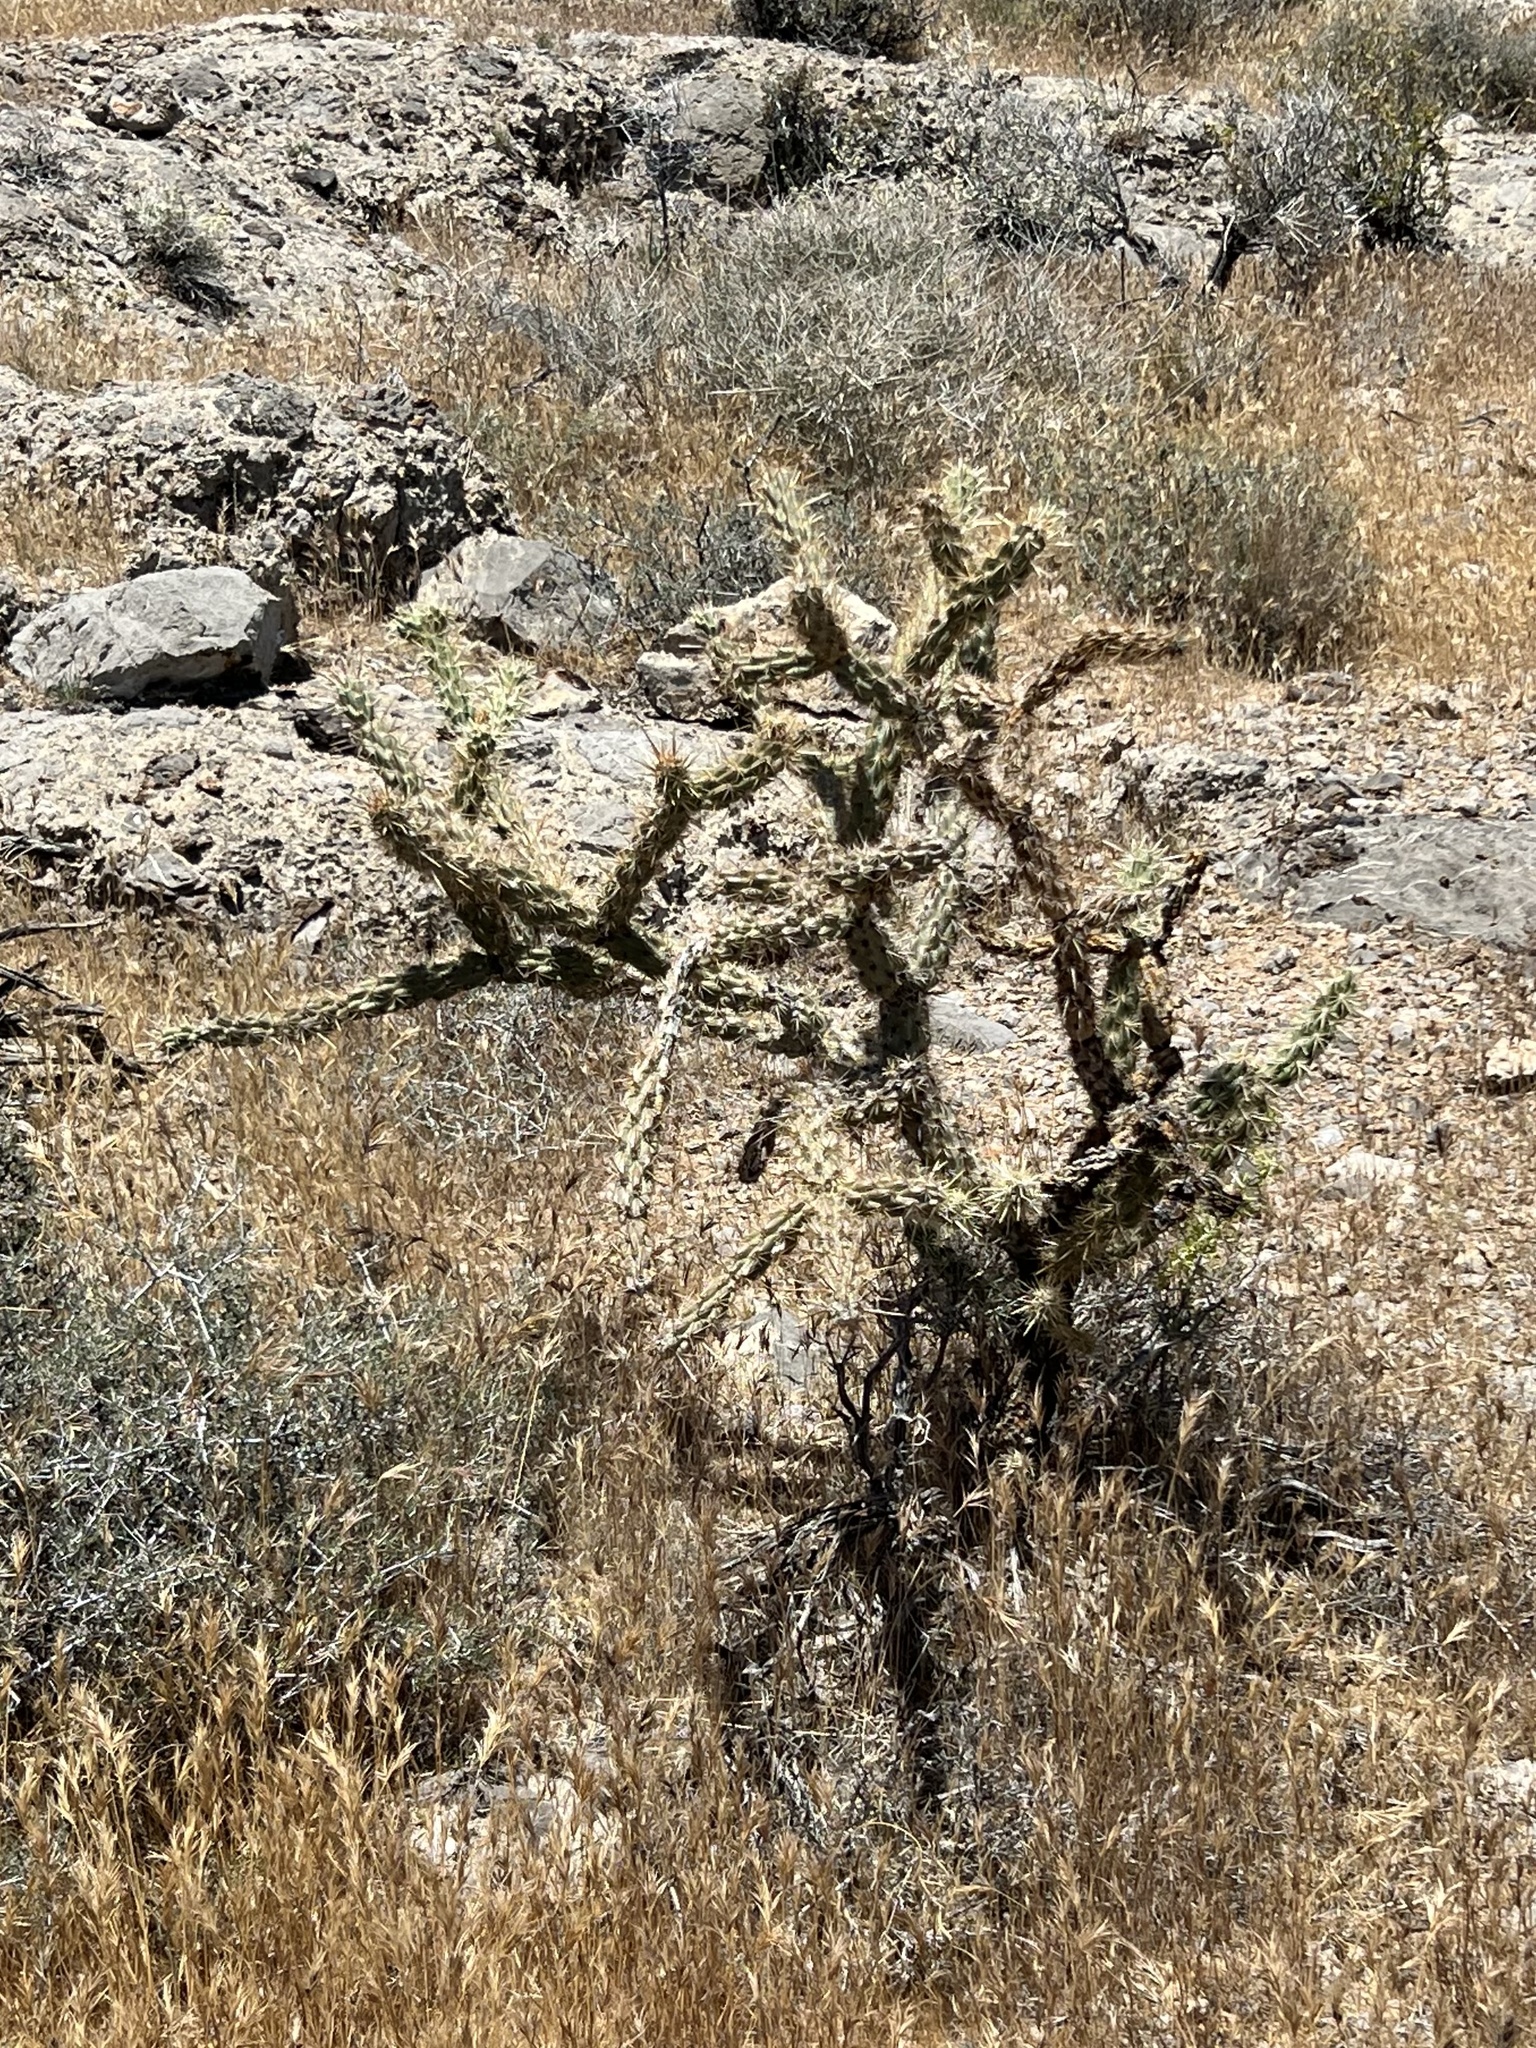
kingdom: Plantae
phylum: Tracheophyta
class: Magnoliopsida
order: Caryophyllales
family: Cactaceae
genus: Cylindropuntia
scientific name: Cylindropuntia acanthocarpa
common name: Buckhorn cholla
